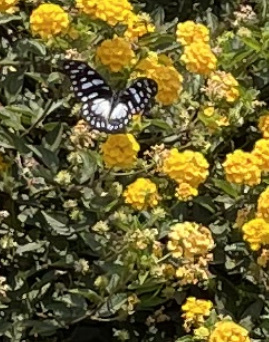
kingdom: Animalia
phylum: Arthropoda
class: Insecta
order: Lepidoptera
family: Papilionidae
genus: Graphium
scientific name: Graphium leonidas
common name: Common graphium
